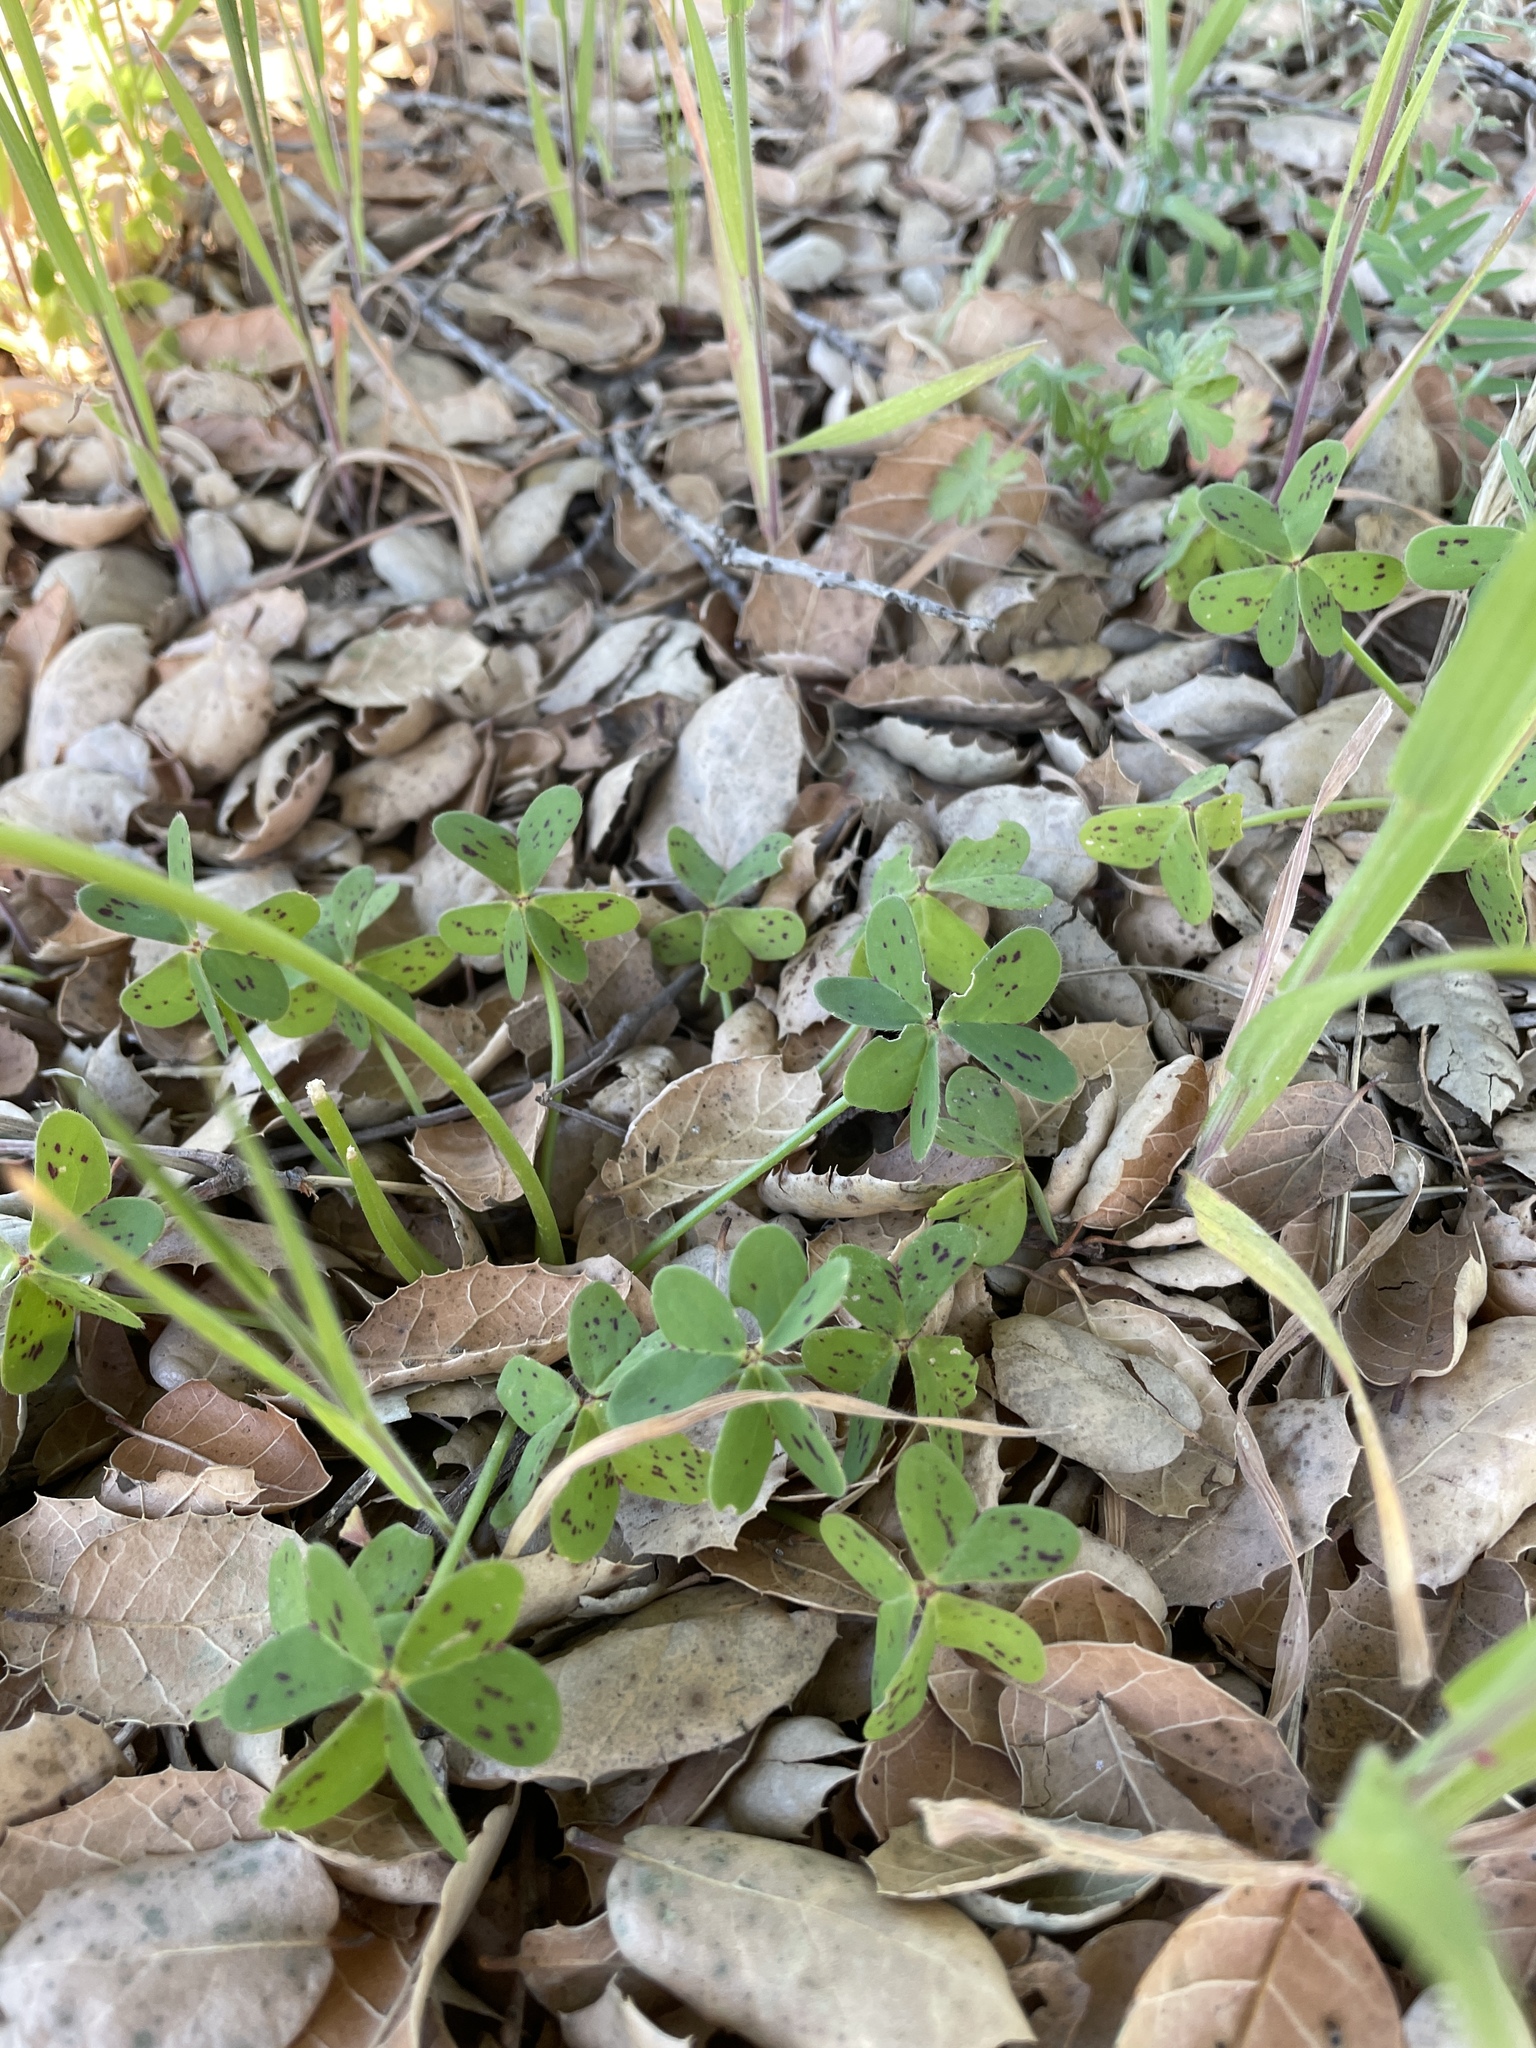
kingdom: Plantae
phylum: Tracheophyta
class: Magnoliopsida
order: Oxalidales
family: Oxalidaceae
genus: Oxalis
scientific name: Oxalis pes-caprae
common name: Bermuda-buttercup
